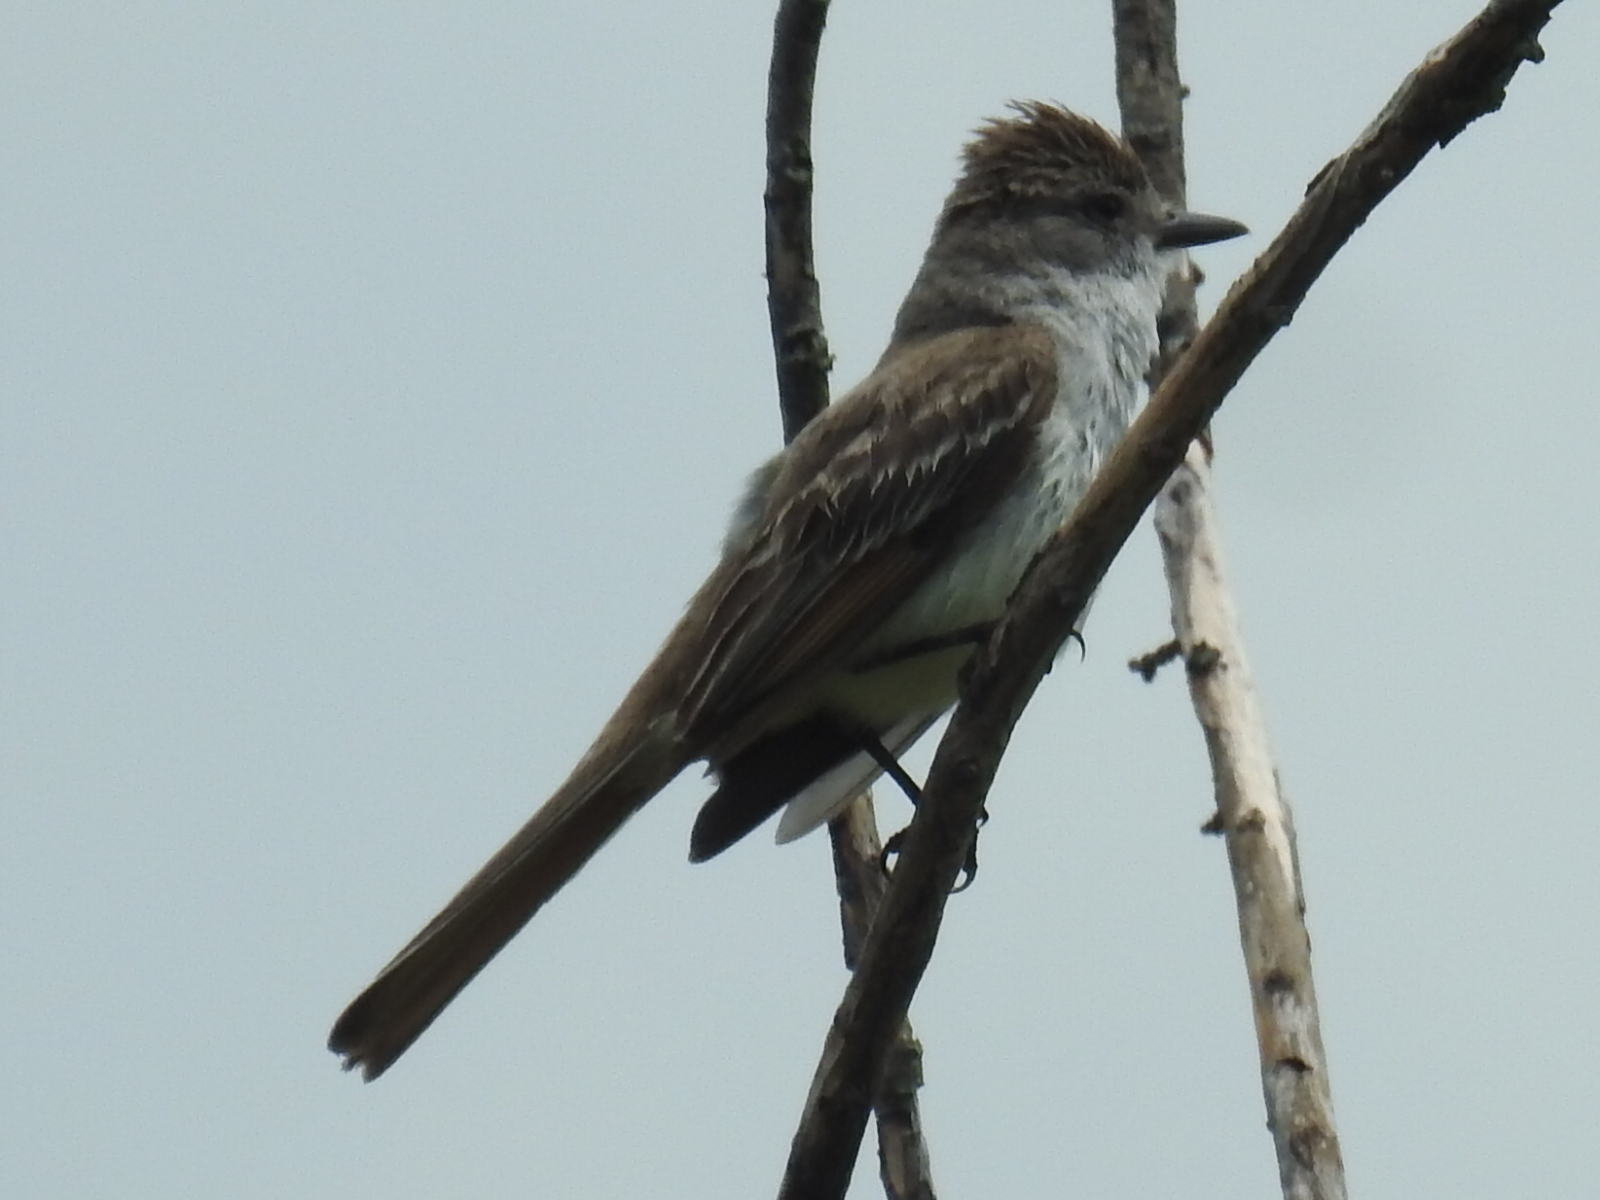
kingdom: Animalia
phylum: Chordata
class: Aves
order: Passeriformes
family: Tyrannidae
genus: Myiarchus
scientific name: Myiarchus cinerascens
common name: Ash-throated flycatcher
